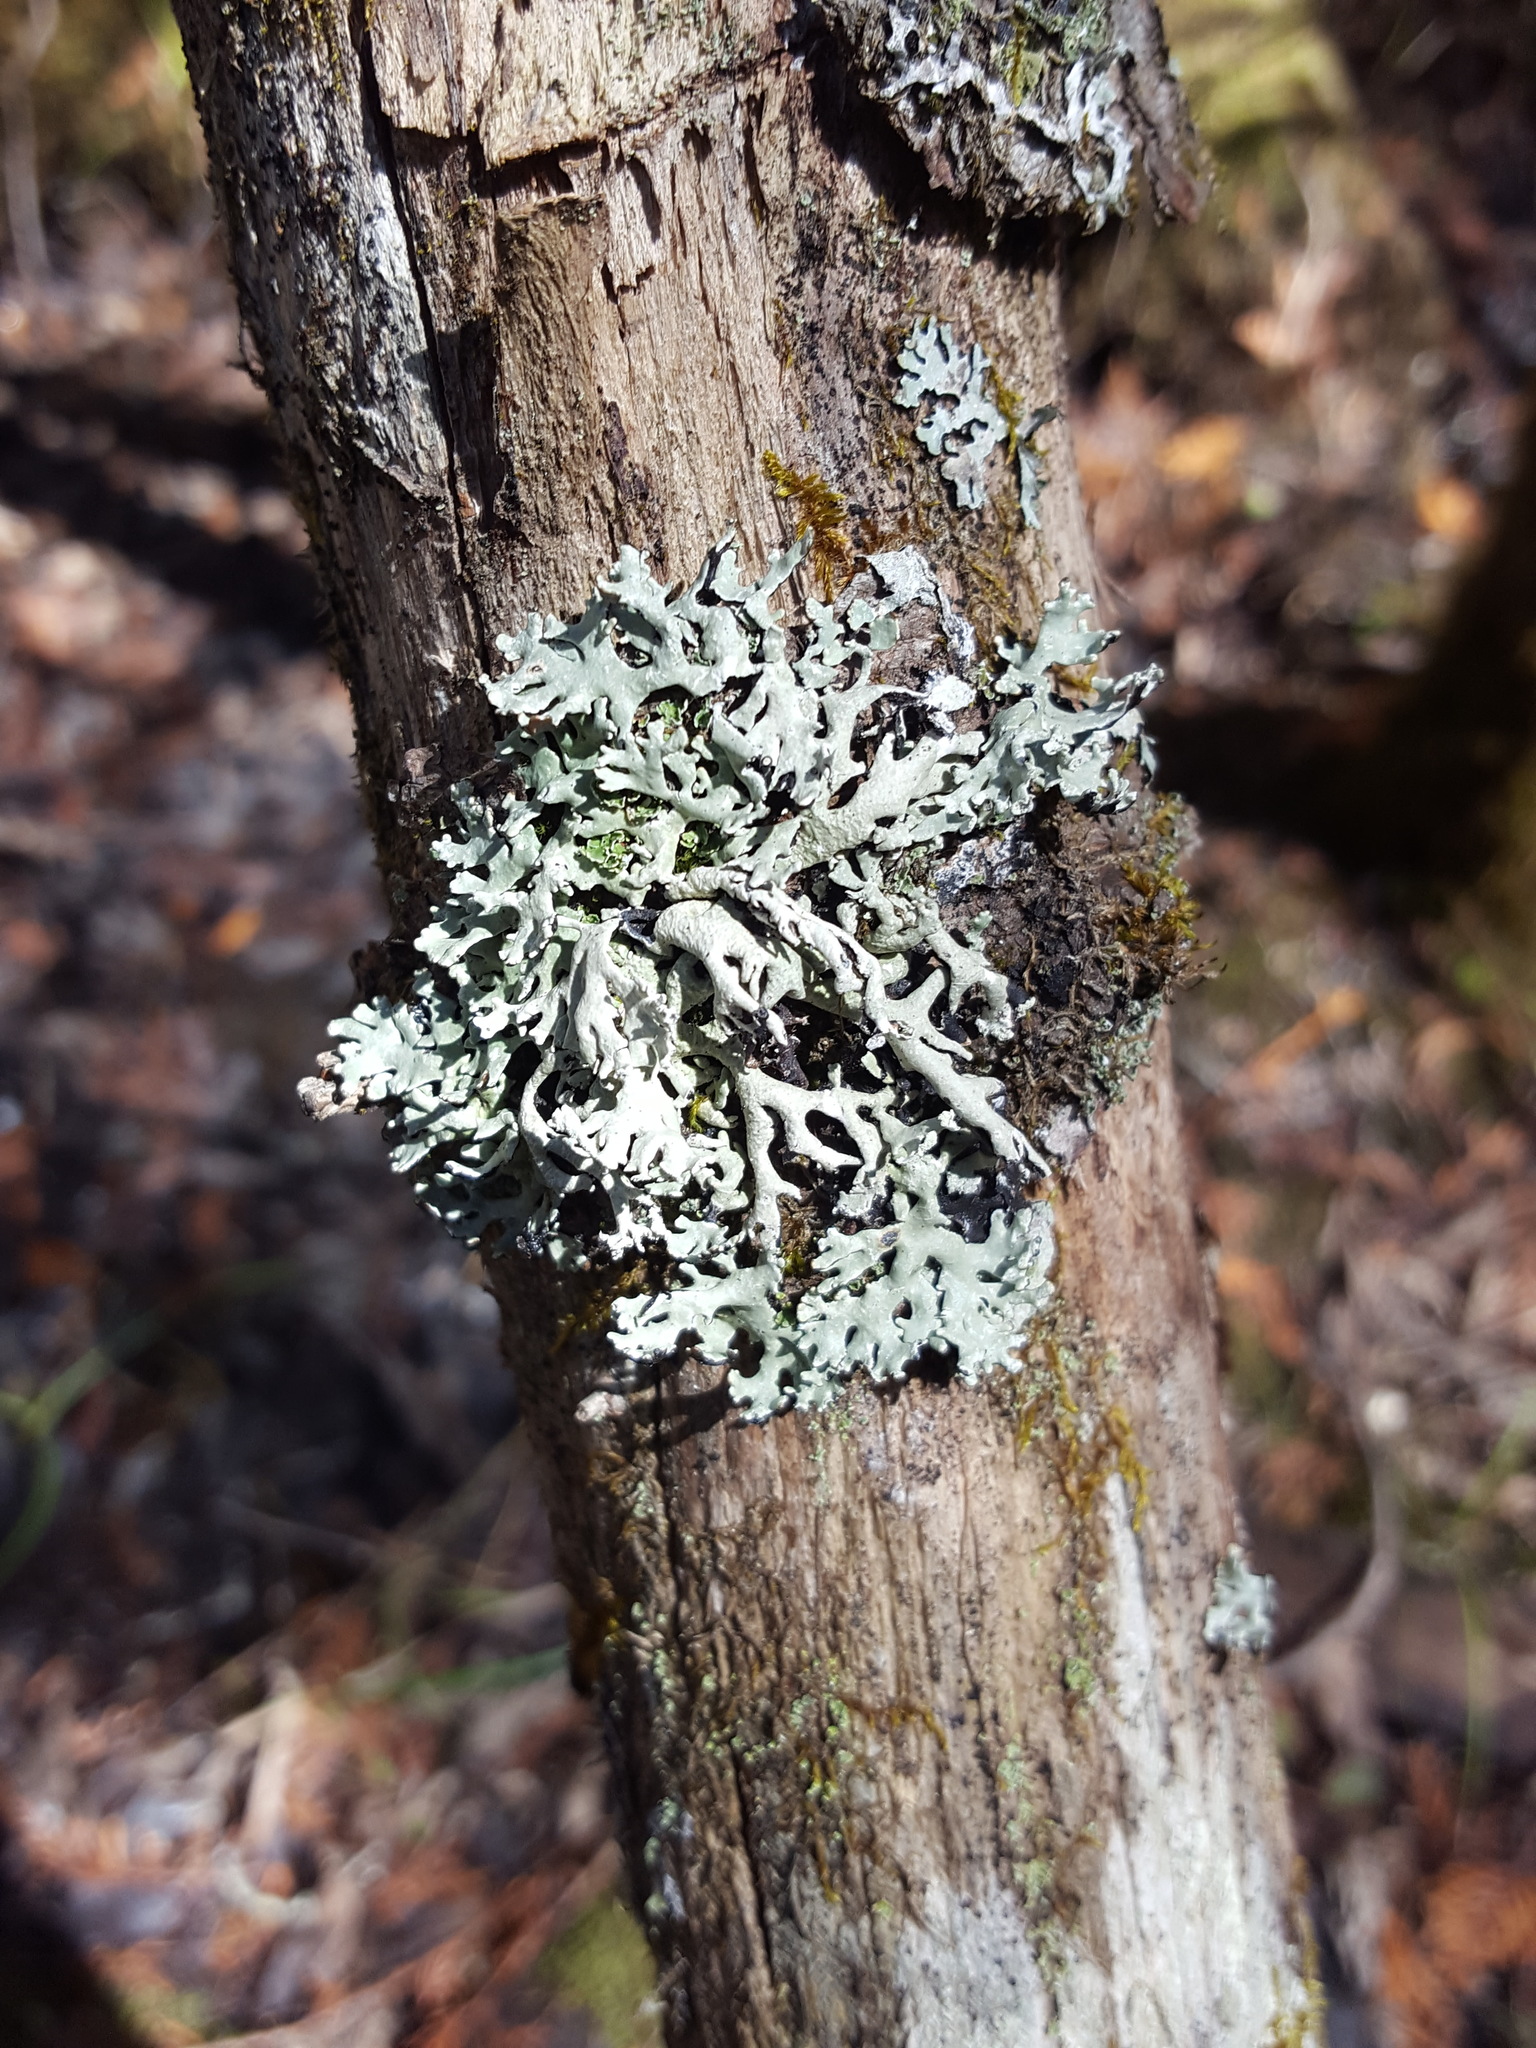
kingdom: Fungi
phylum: Ascomycota
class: Lecanoromycetes
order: Lecanorales
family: Parmeliaceae
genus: Hypogymnia
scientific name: Hypogymnia physodes
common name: Dark crottle
